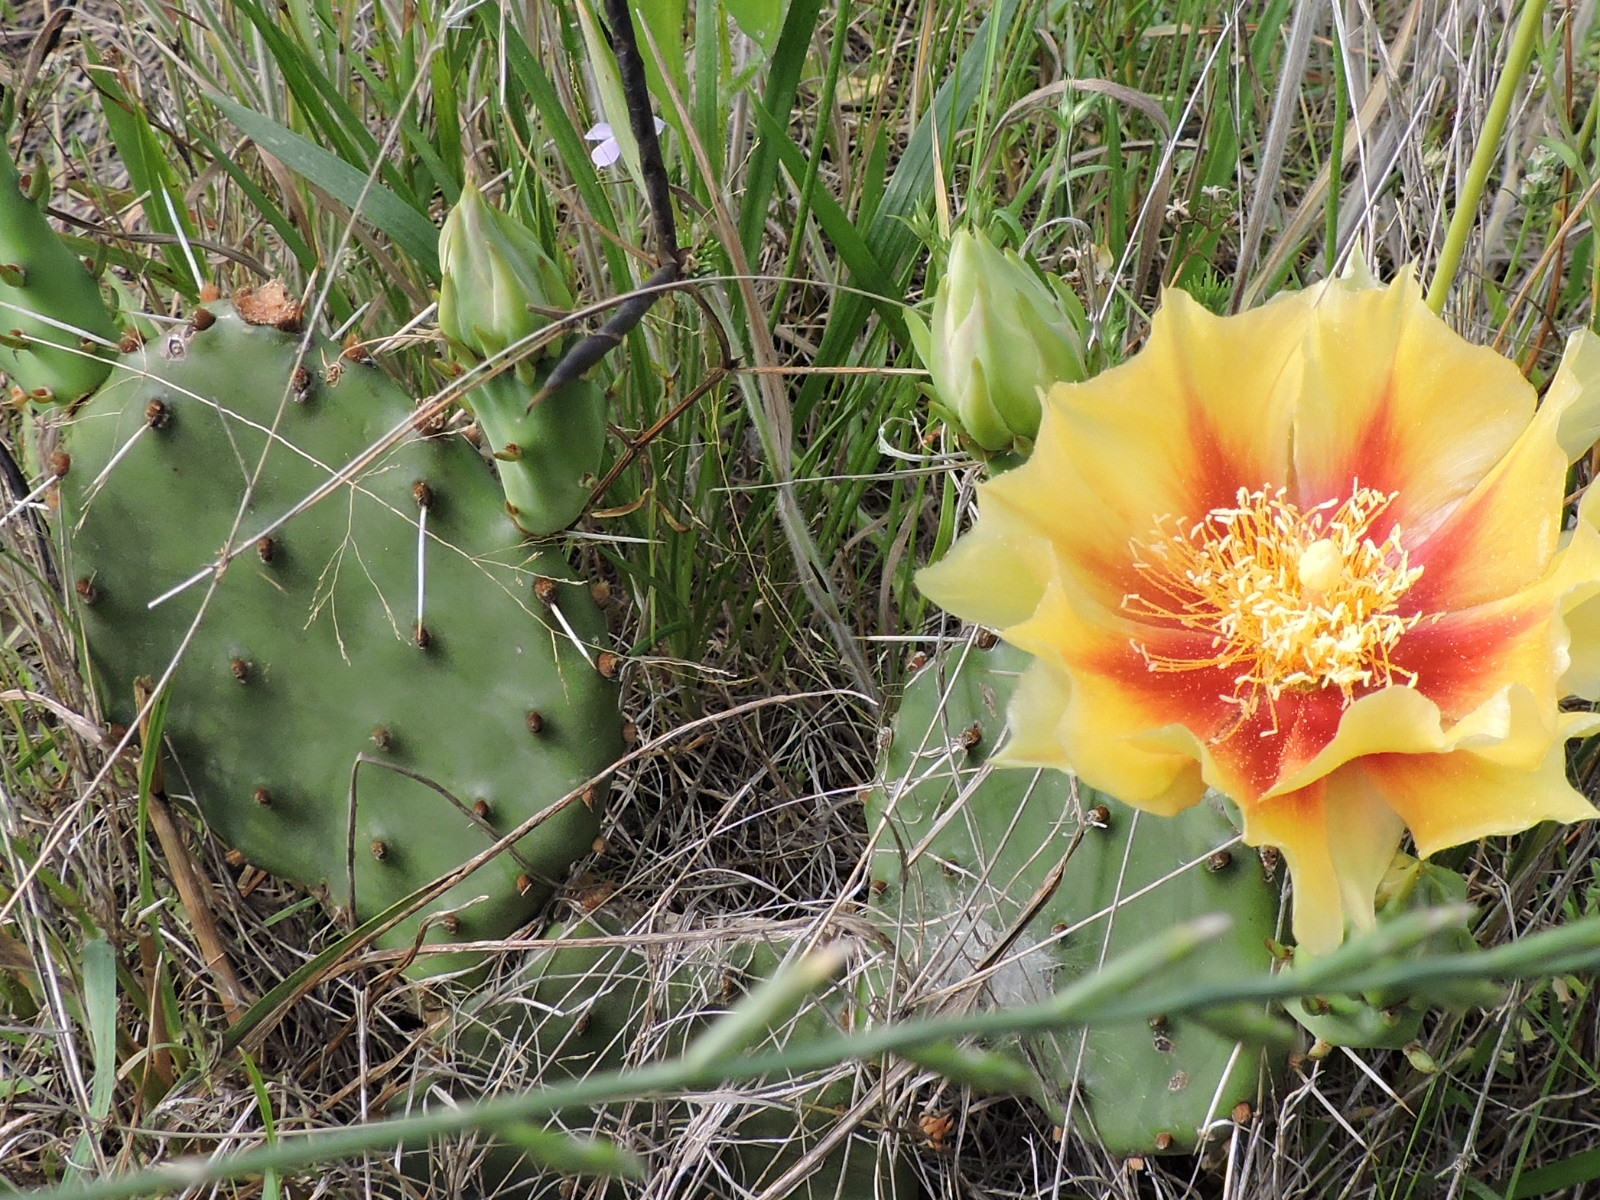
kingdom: Plantae
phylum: Tracheophyta
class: Magnoliopsida
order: Caryophyllales
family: Cactaceae
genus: Opuntia
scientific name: Opuntia macrorhiza
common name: Grassland pricklypear
